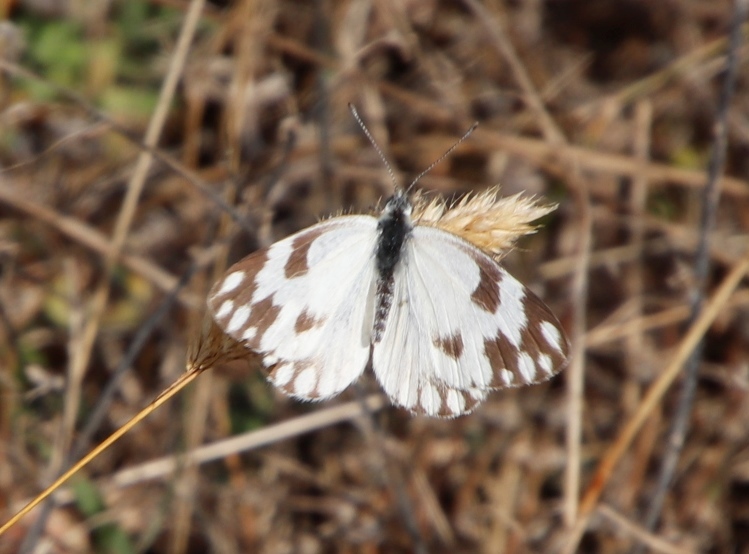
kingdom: Animalia
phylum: Arthropoda
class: Insecta
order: Lepidoptera
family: Pieridae
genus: Pontia
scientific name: Pontia helice
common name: Meadow white
